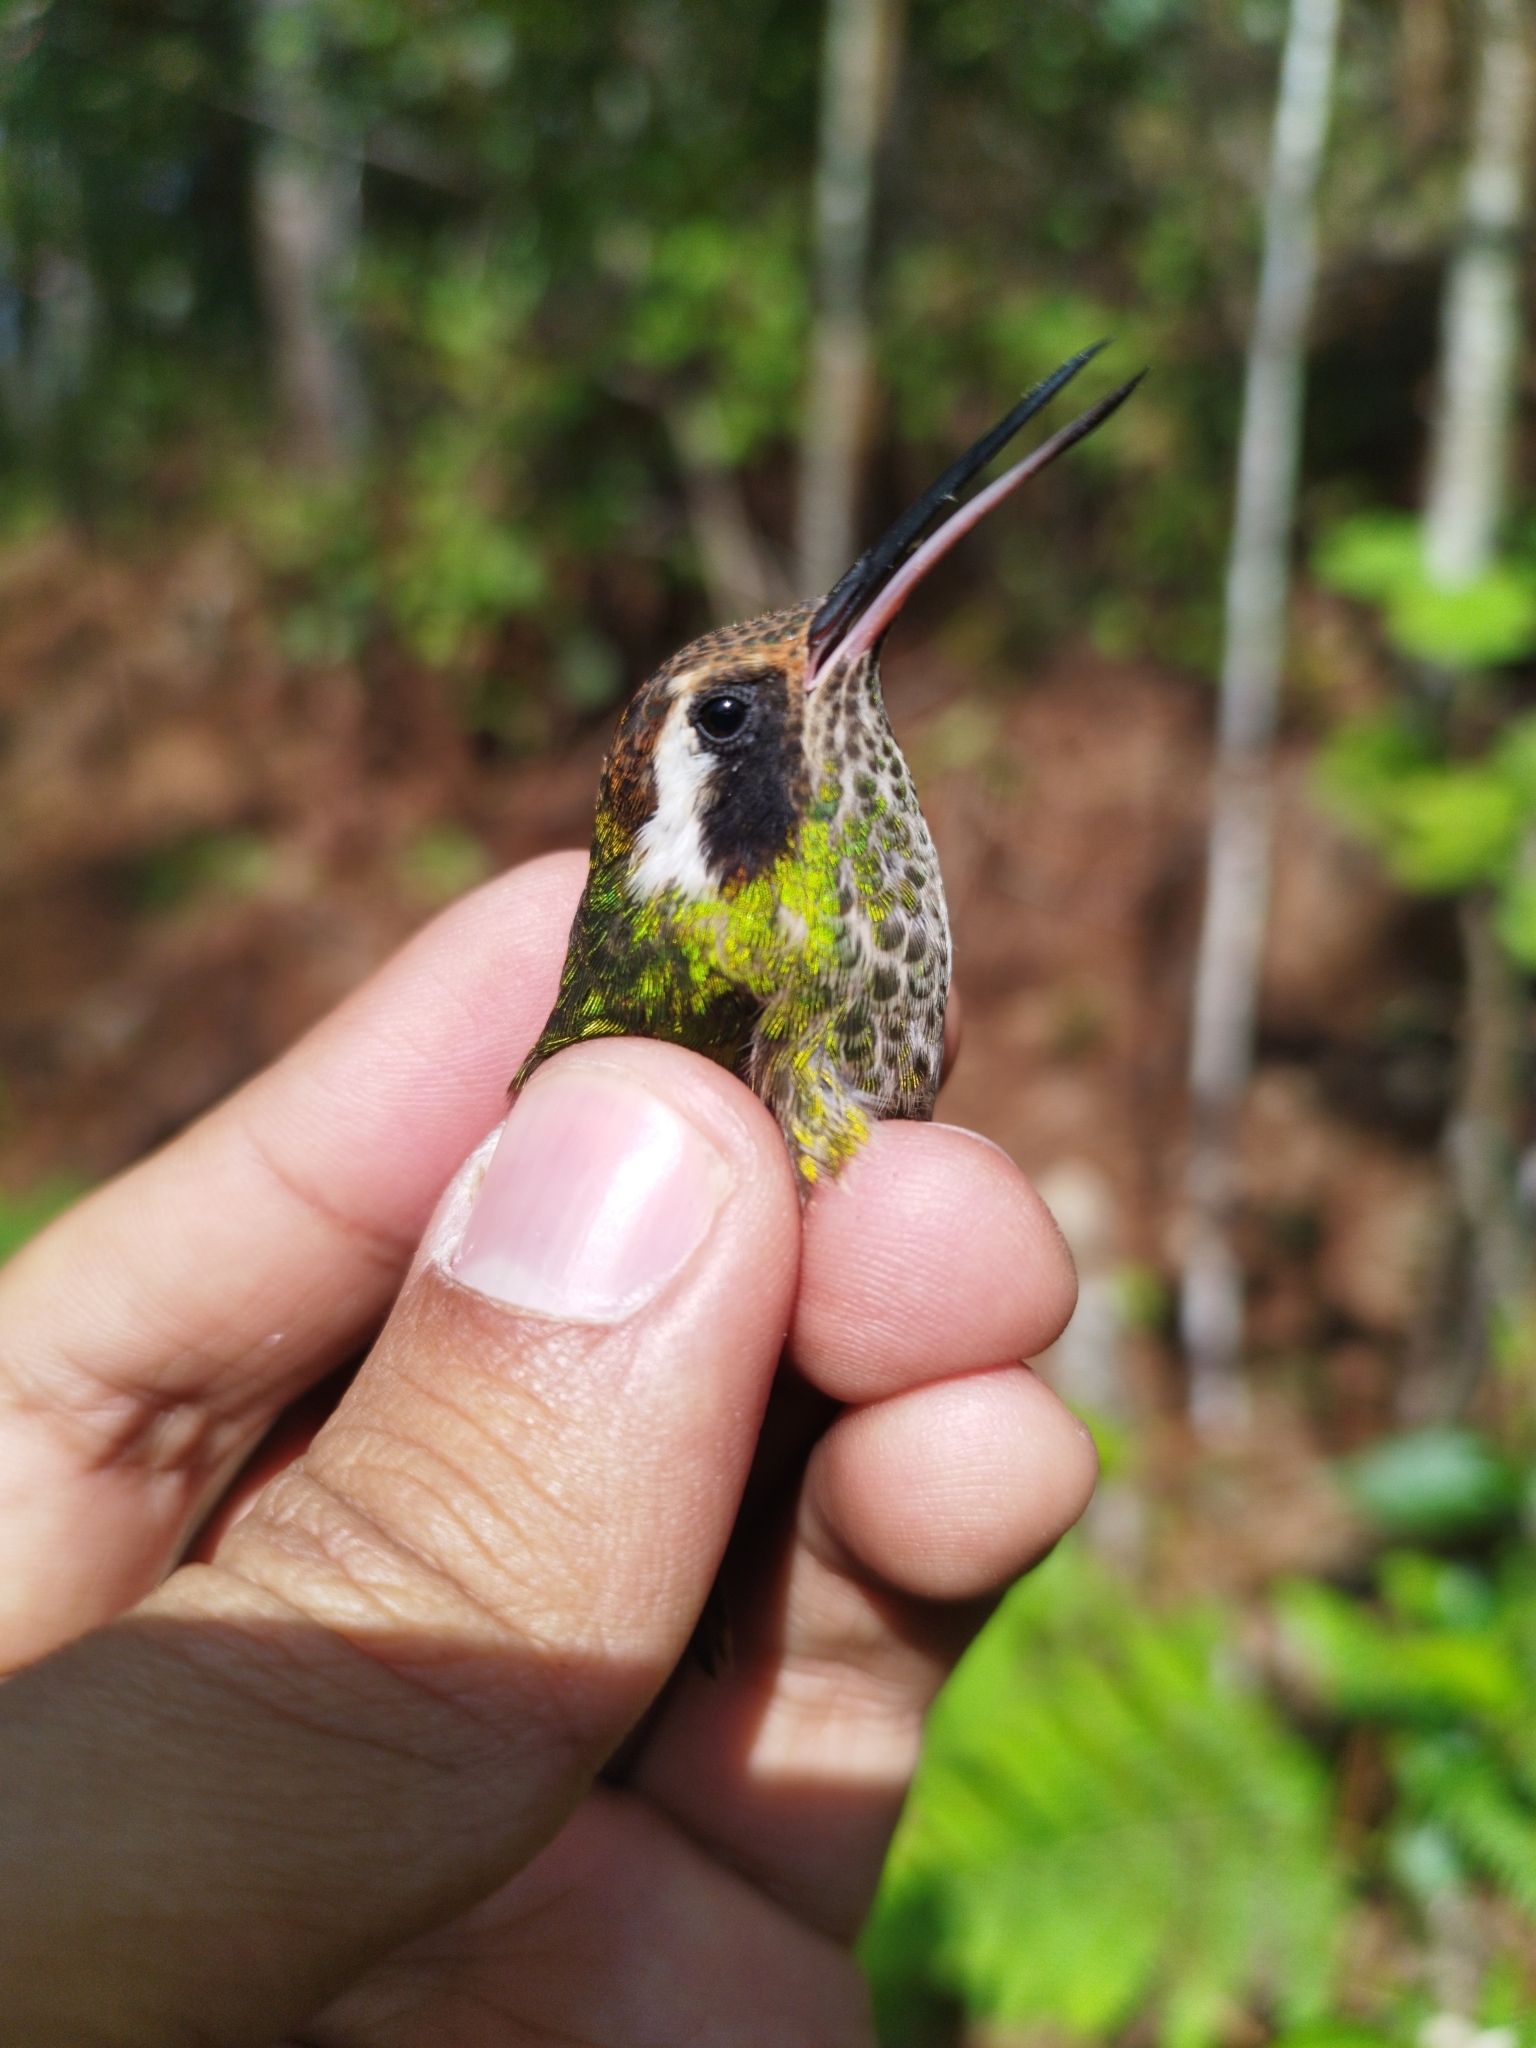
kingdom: Animalia
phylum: Chordata
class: Aves
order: Apodiformes
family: Trochilidae
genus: Basilinna
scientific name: Basilinna leucotis
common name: White-eared hummingbird
